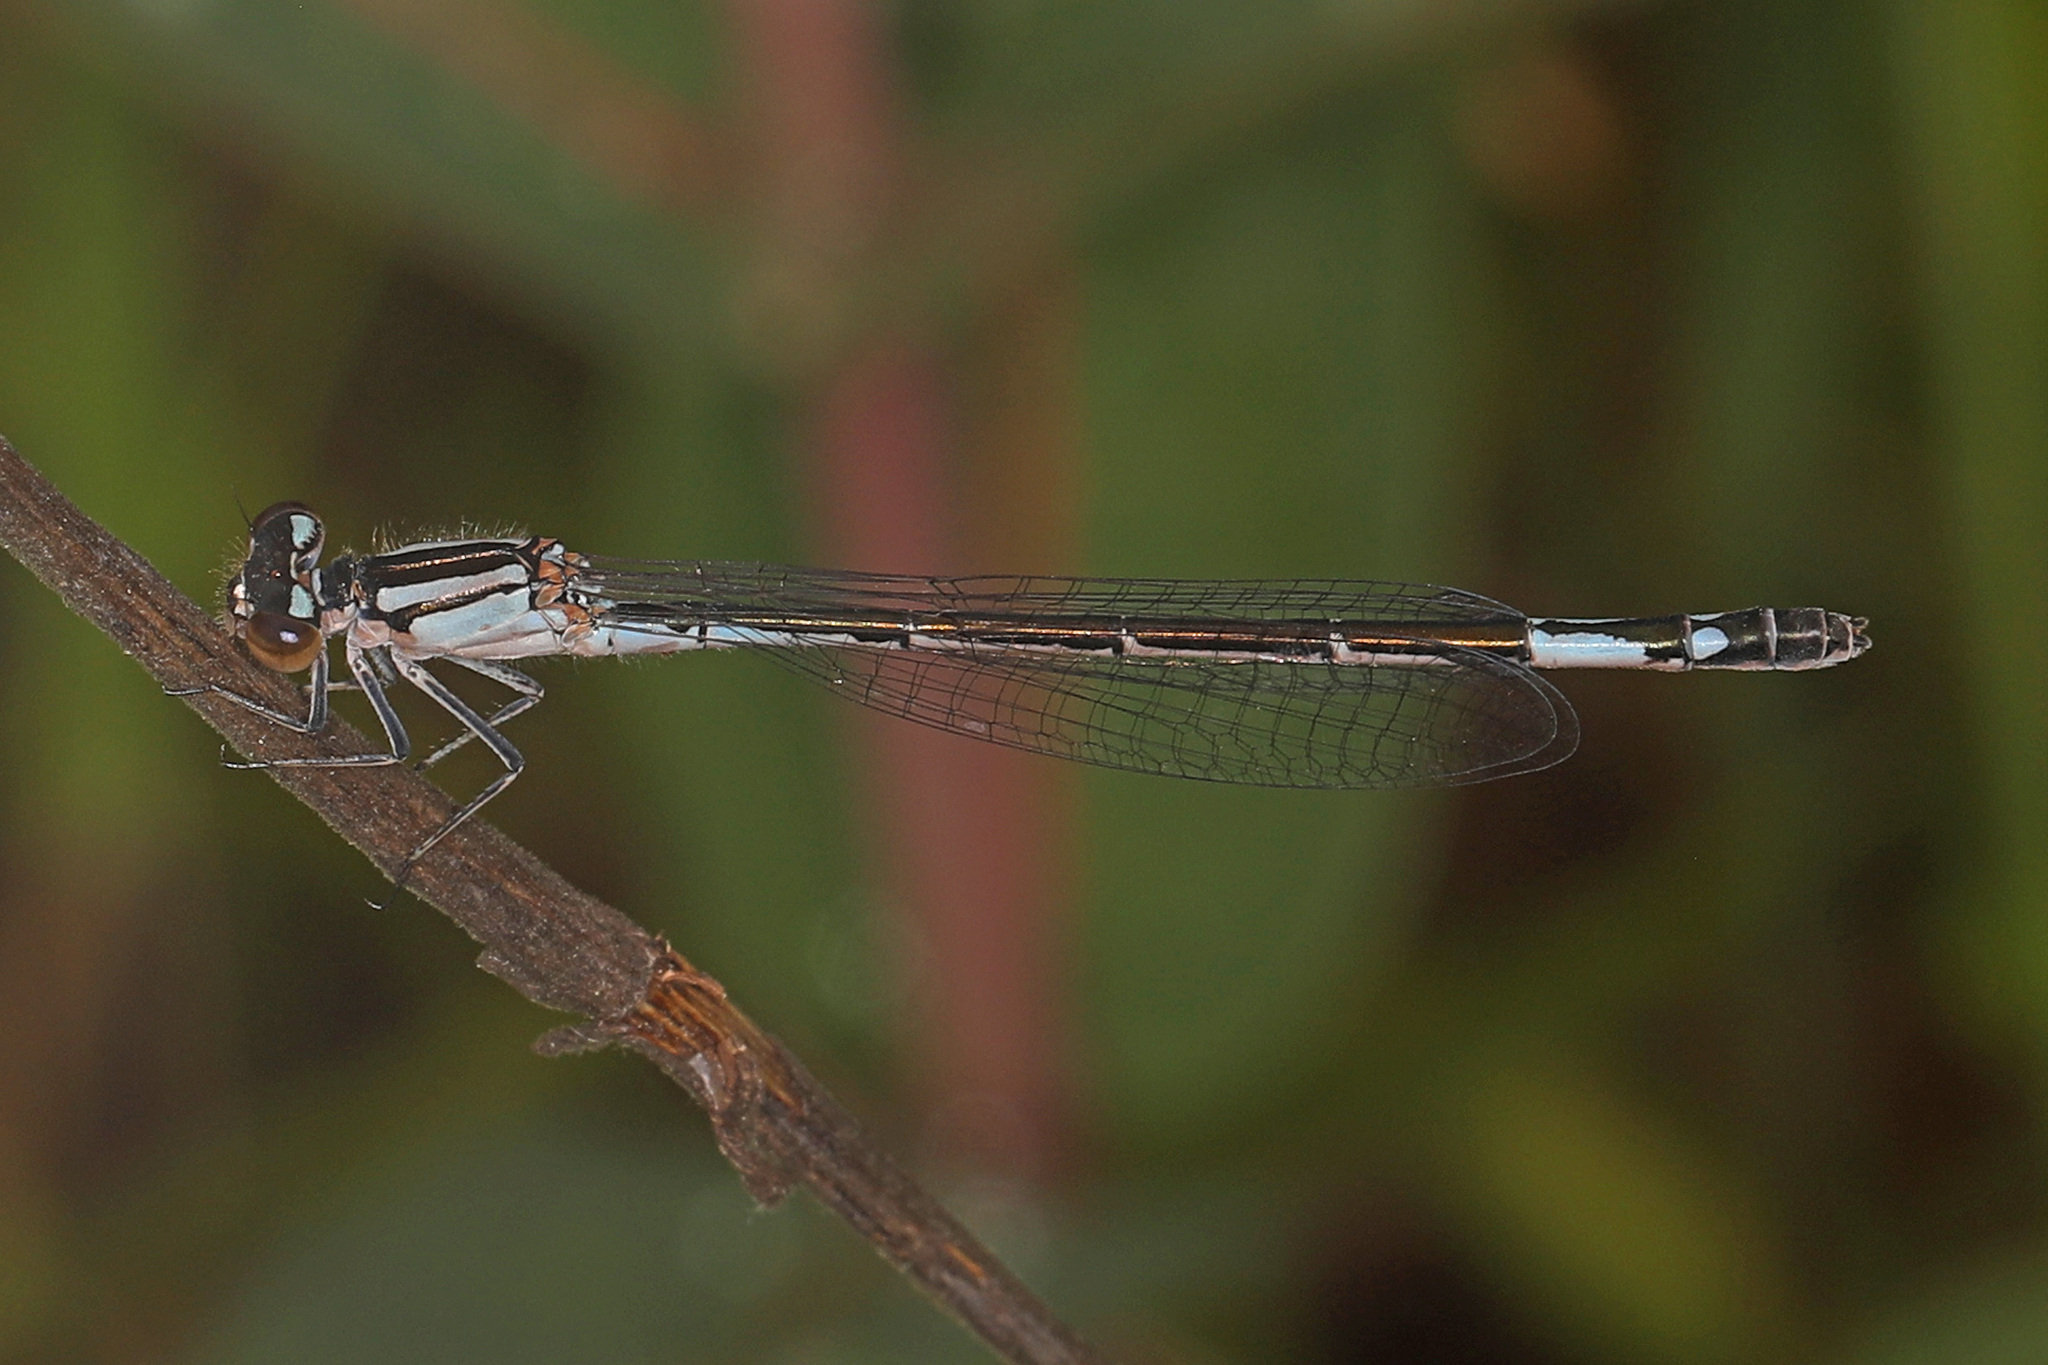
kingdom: Animalia
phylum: Arthropoda
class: Insecta
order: Odonata
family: Coenagrionidae
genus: Enallagma
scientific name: Enallagma aspersum
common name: Azure bluet
